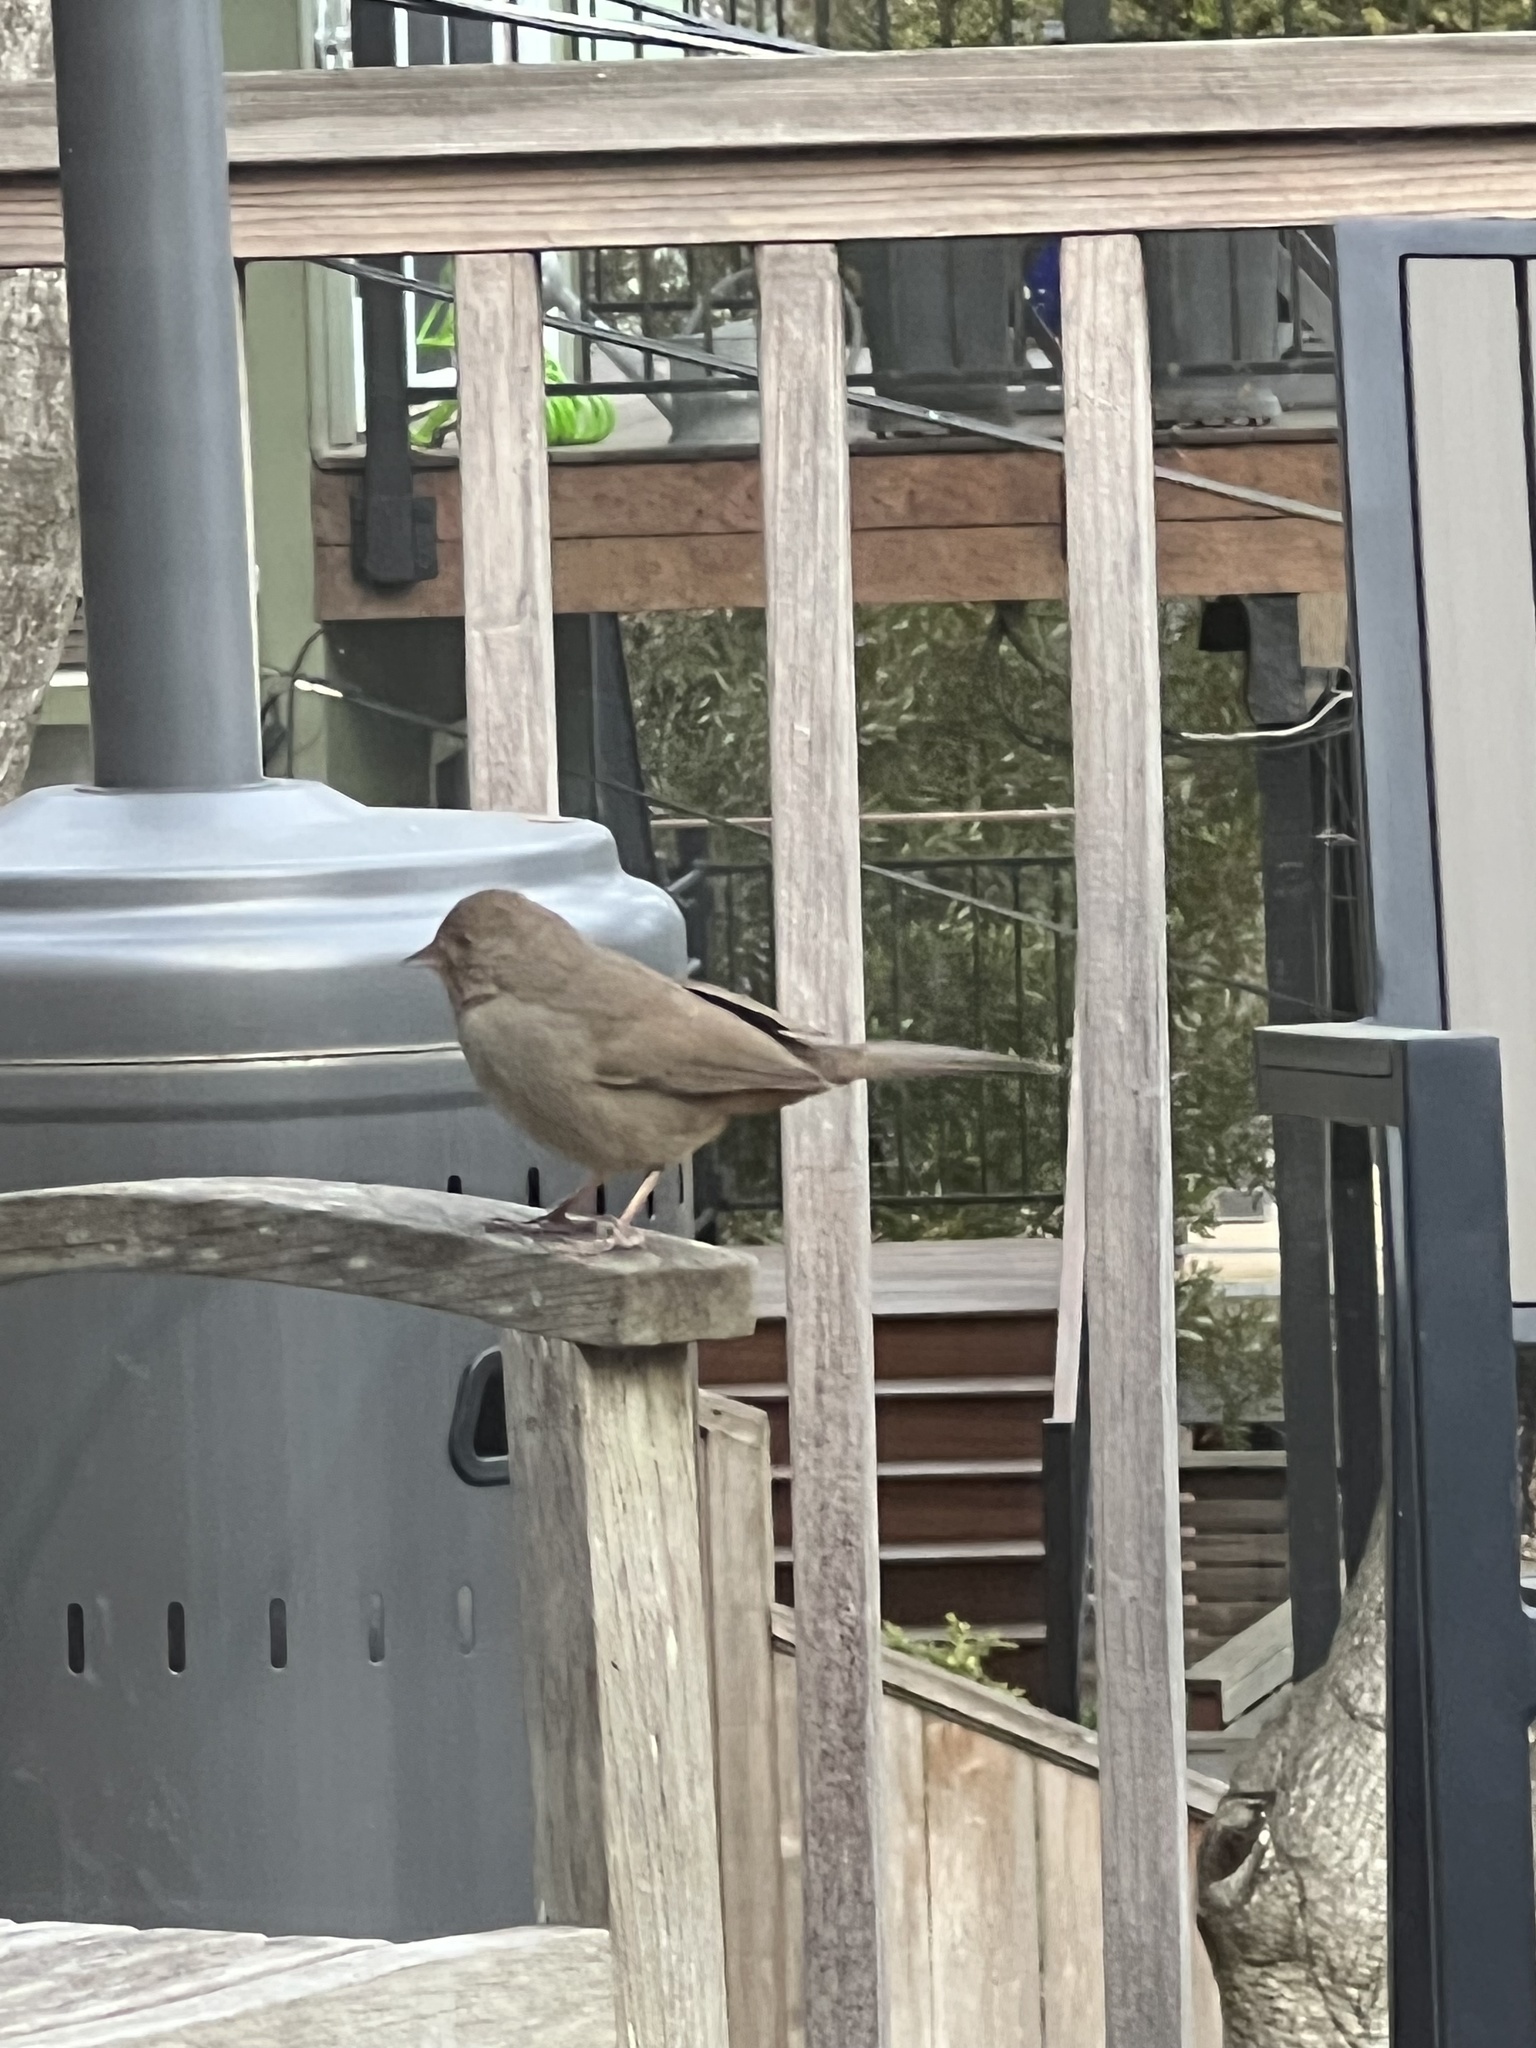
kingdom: Animalia
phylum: Chordata
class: Aves
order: Passeriformes
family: Passerellidae
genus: Melozone
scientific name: Melozone crissalis
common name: California towhee
